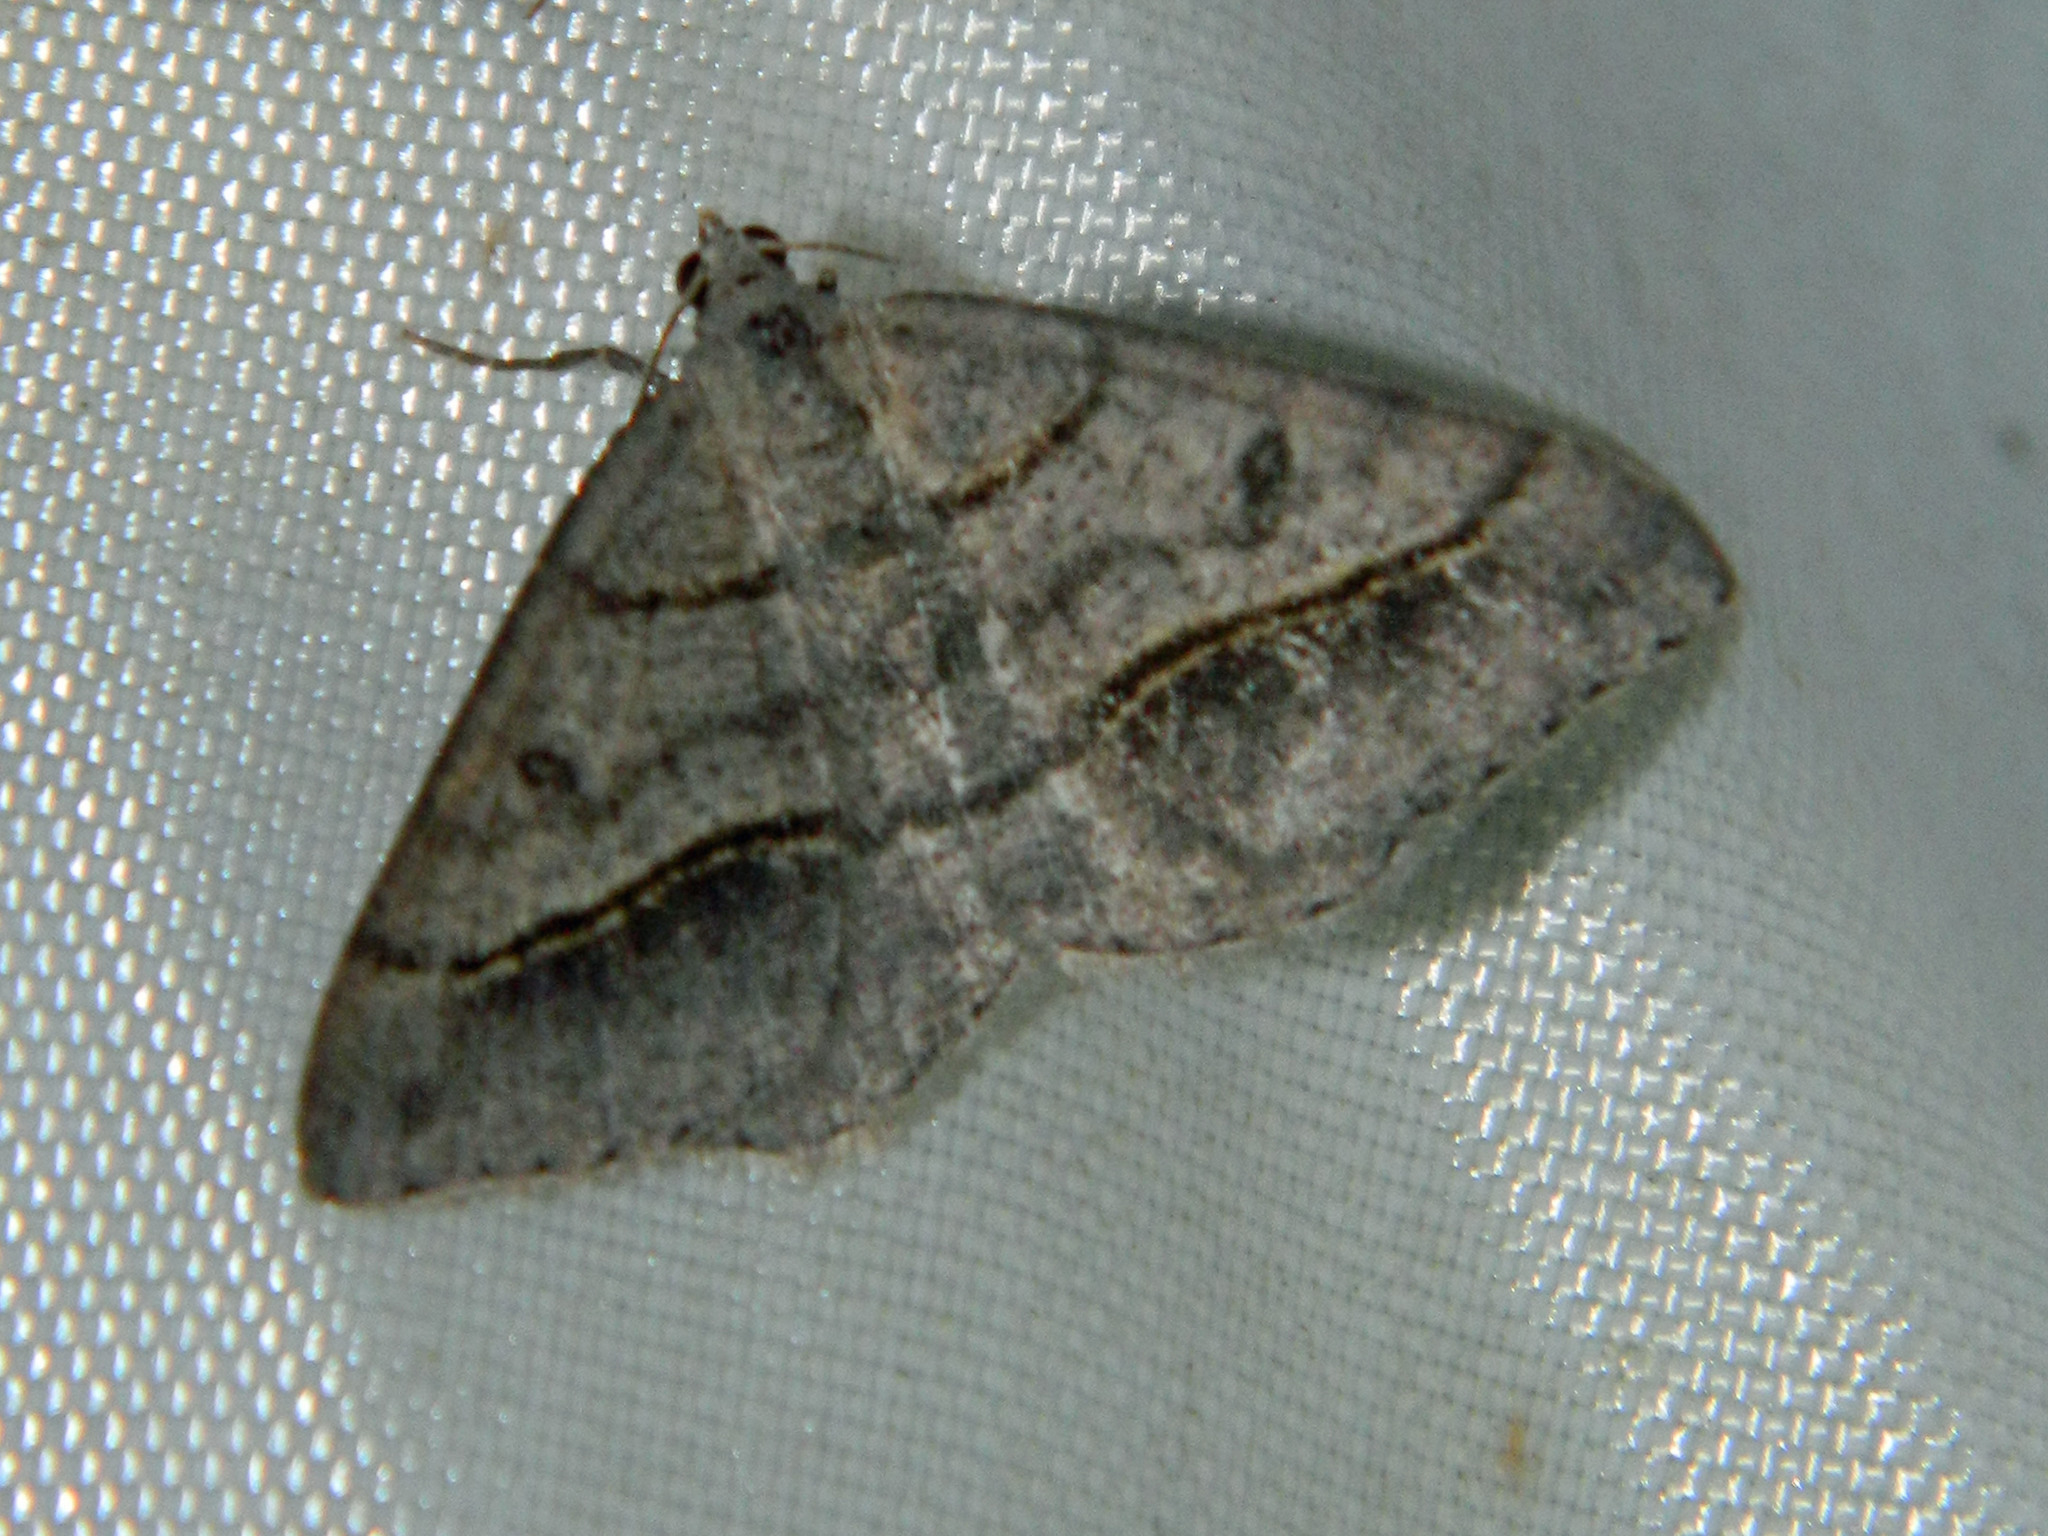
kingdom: Animalia
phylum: Arthropoda
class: Insecta
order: Lepidoptera
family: Geometridae
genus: Digrammia
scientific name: Digrammia neptaria
